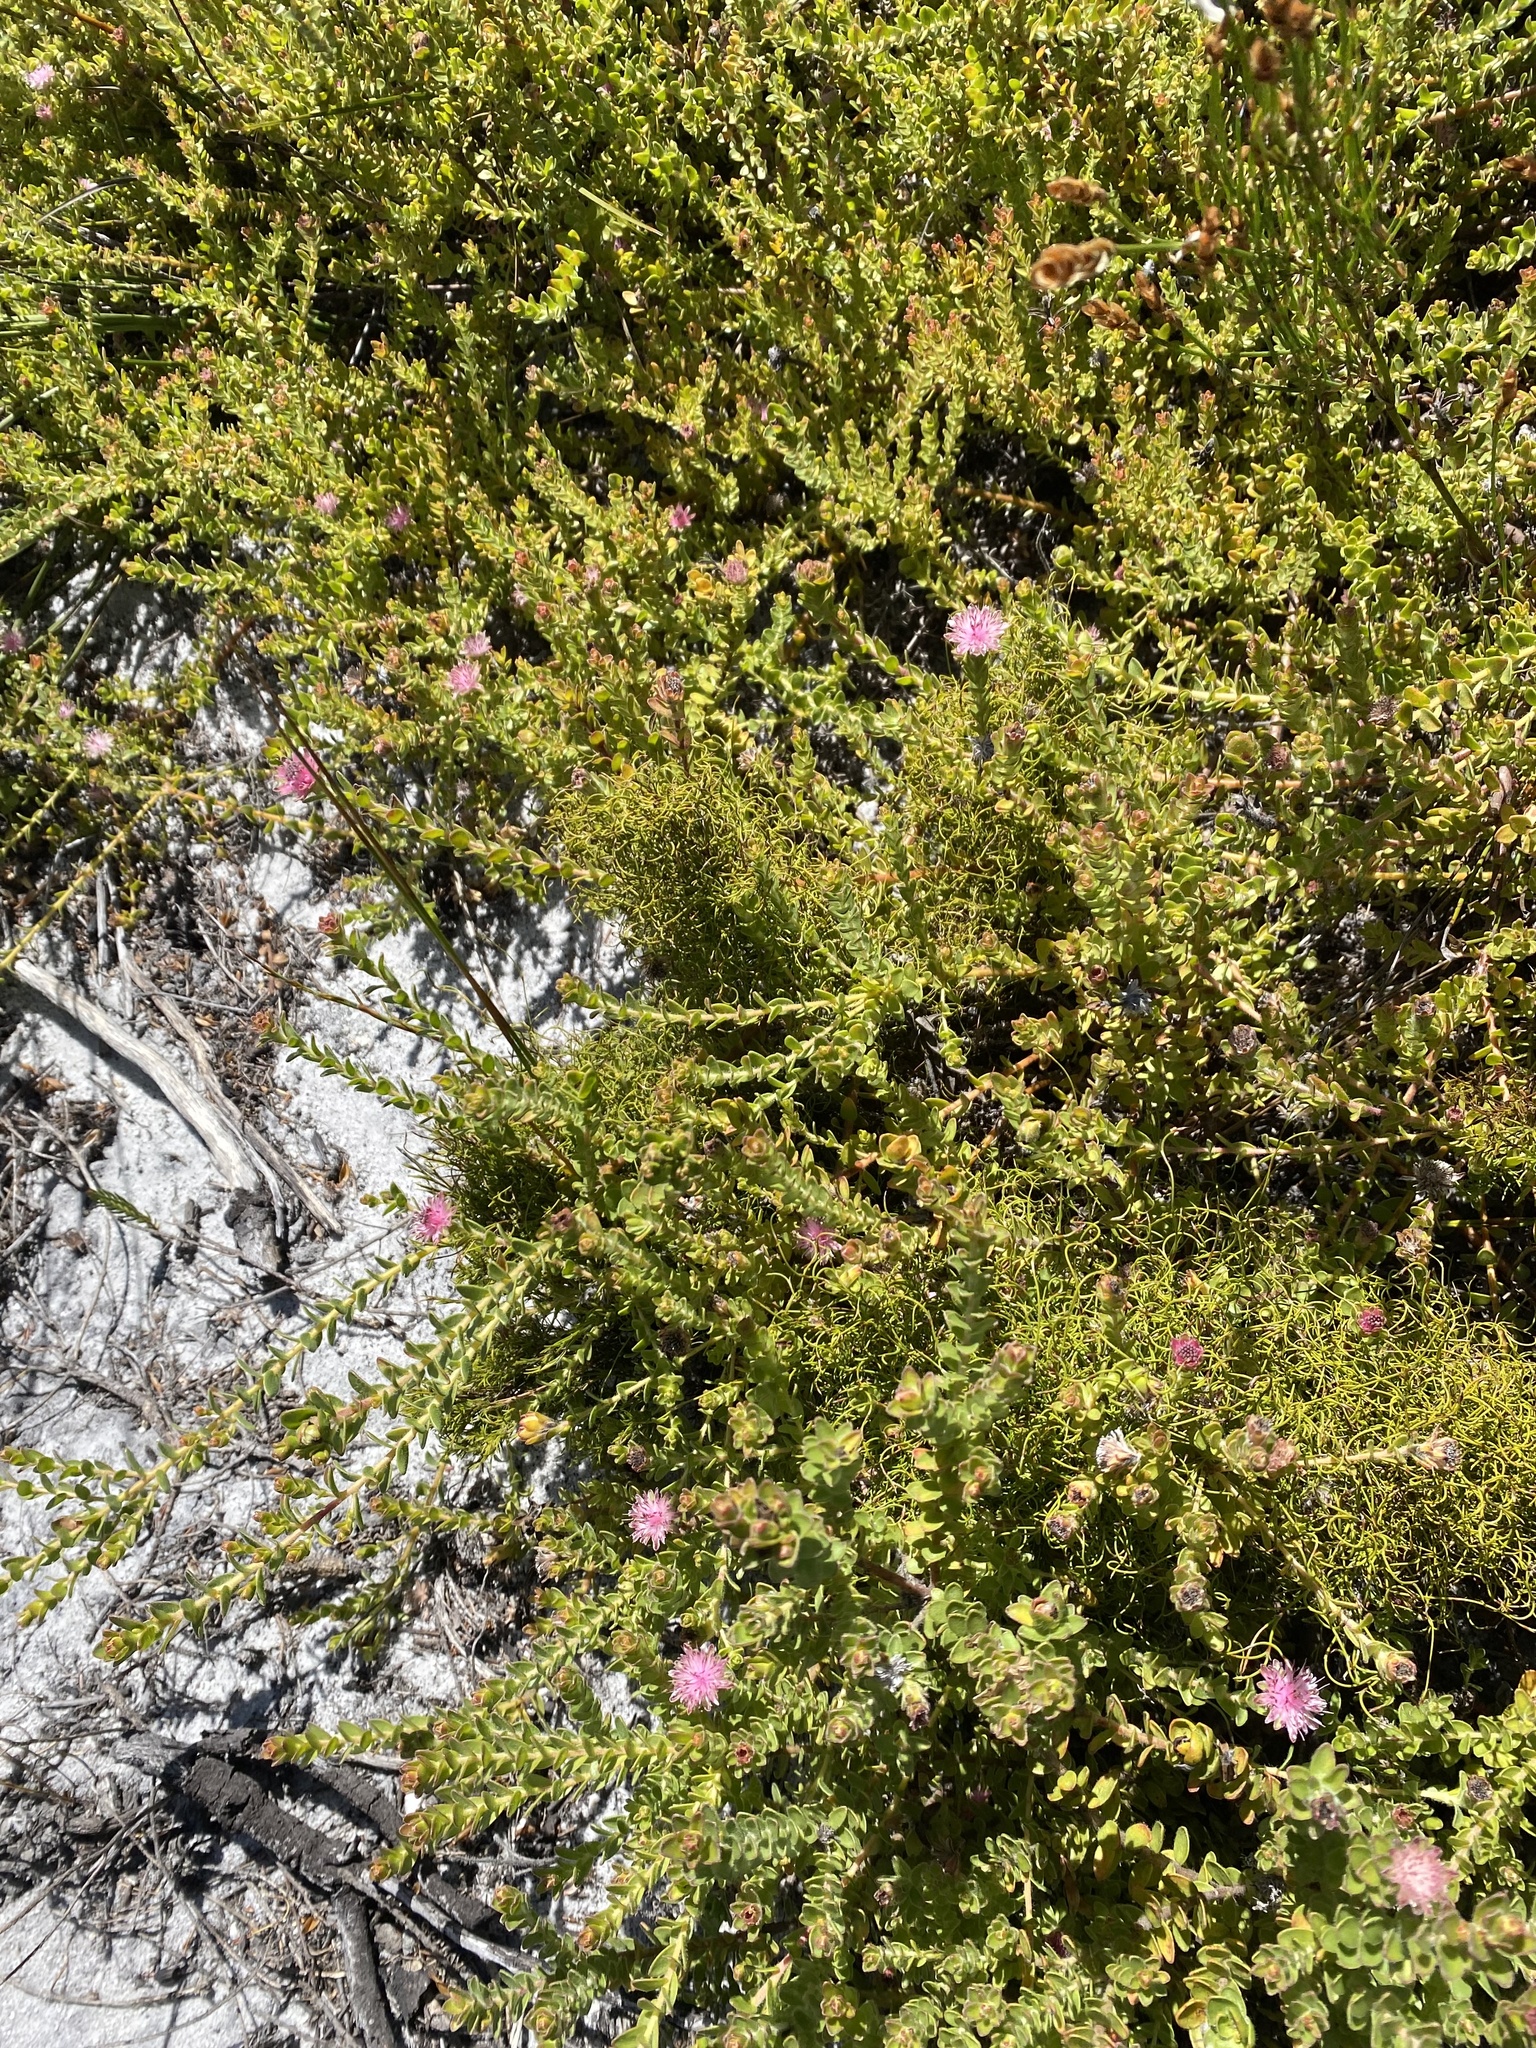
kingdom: Plantae
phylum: Tracheophyta
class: Magnoliopsida
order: Proteales
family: Proteaceae
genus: Diastella
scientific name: Diastella divaricata
